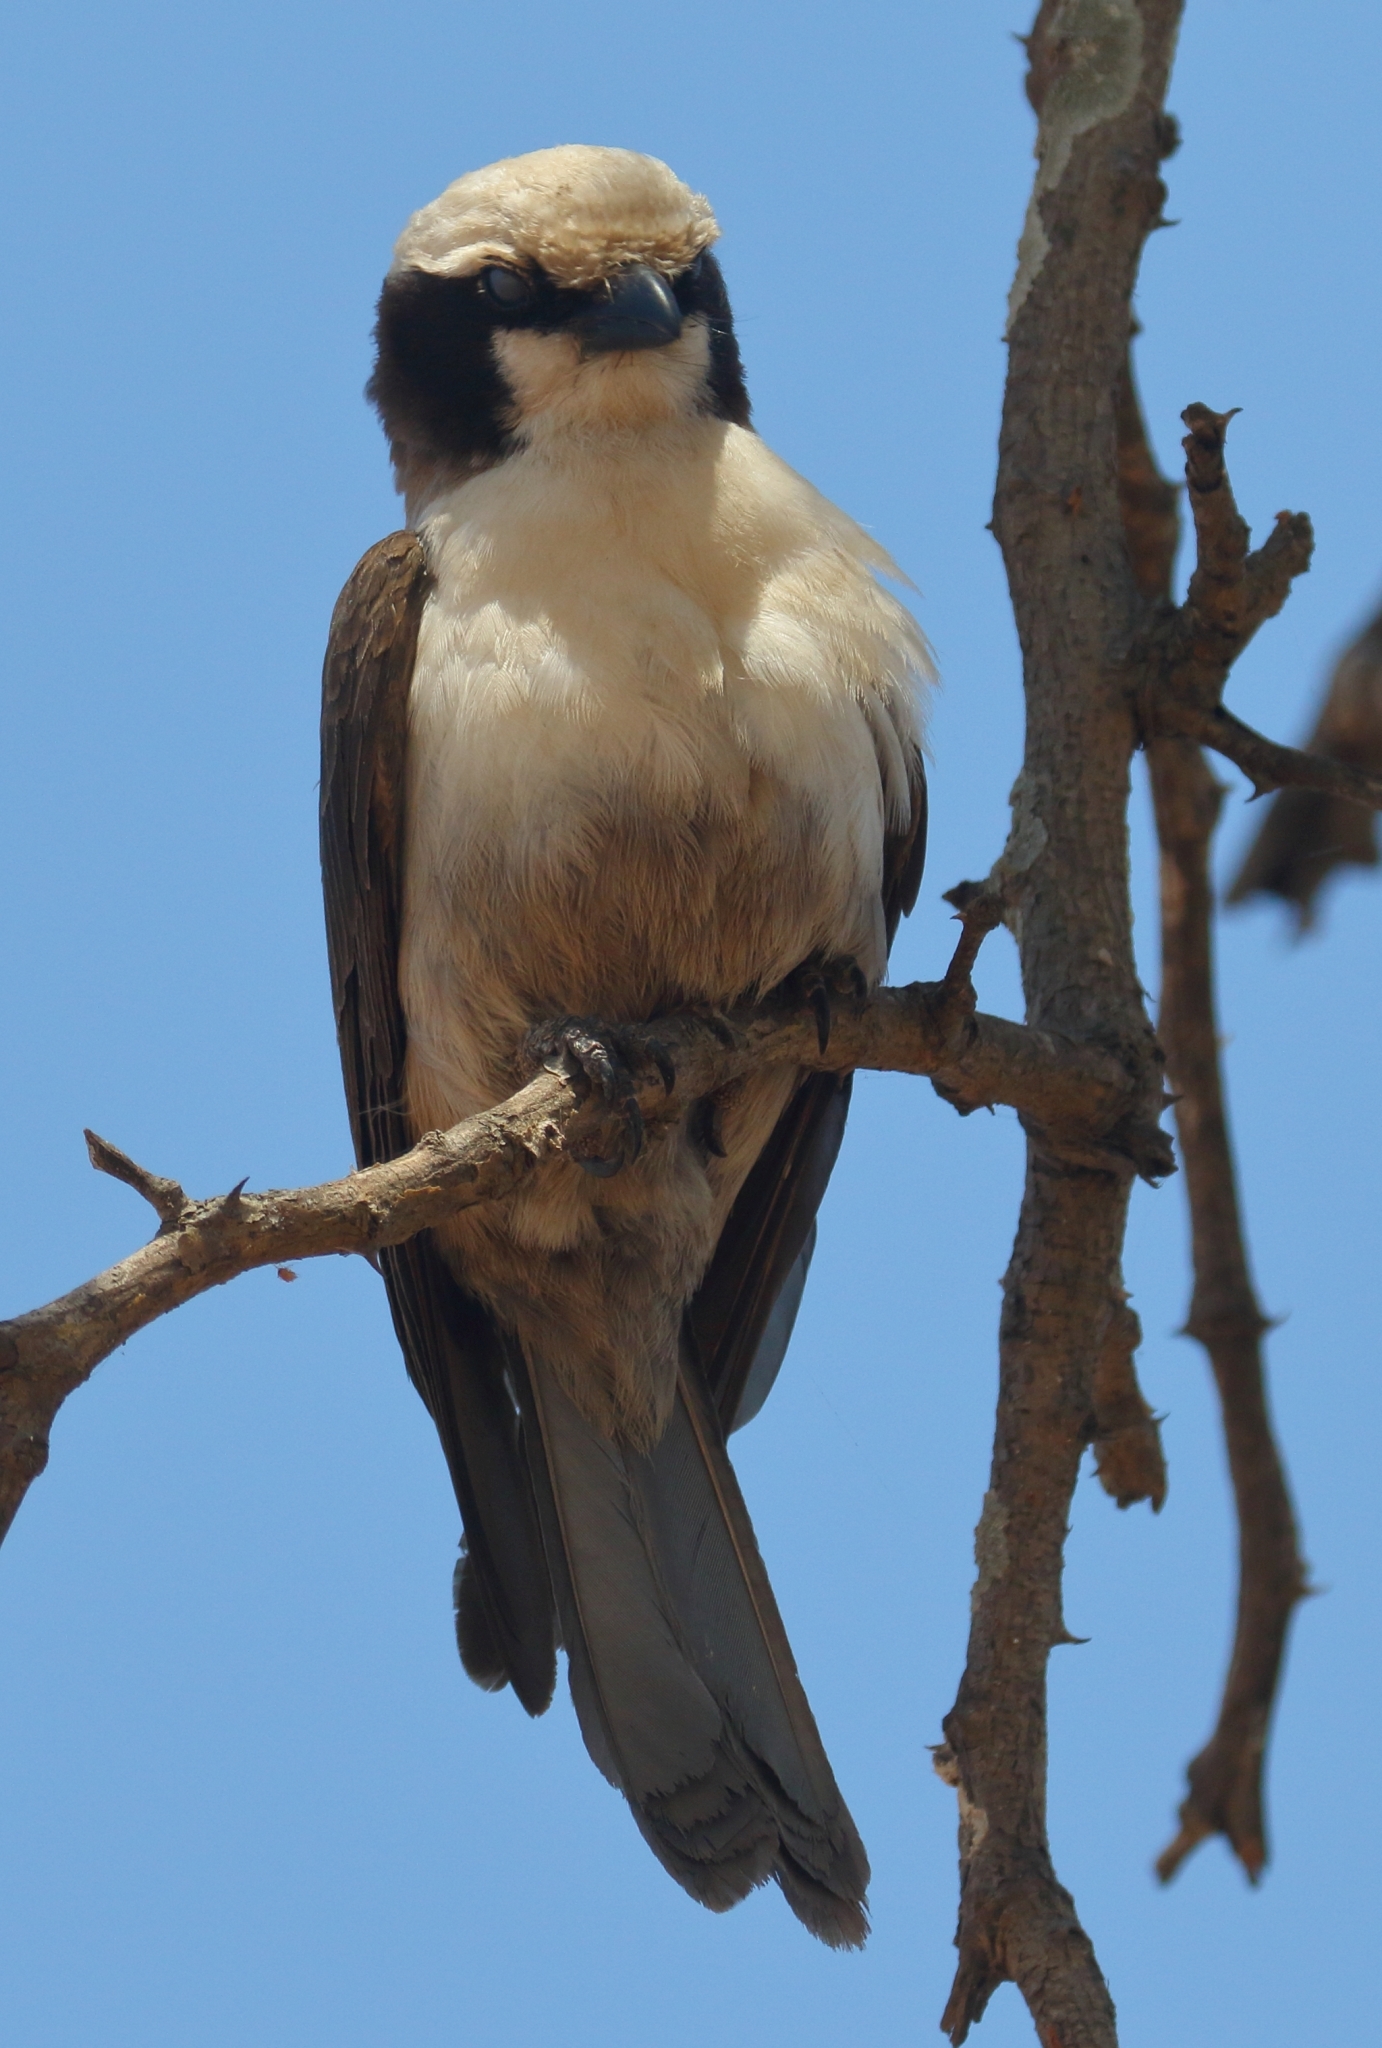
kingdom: Animalia
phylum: Chordata
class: Aves
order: Passeriformes
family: Laniidae
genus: Eurocephalus
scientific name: Eurocephalus anguitimens
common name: Southern white-crowned shrike
